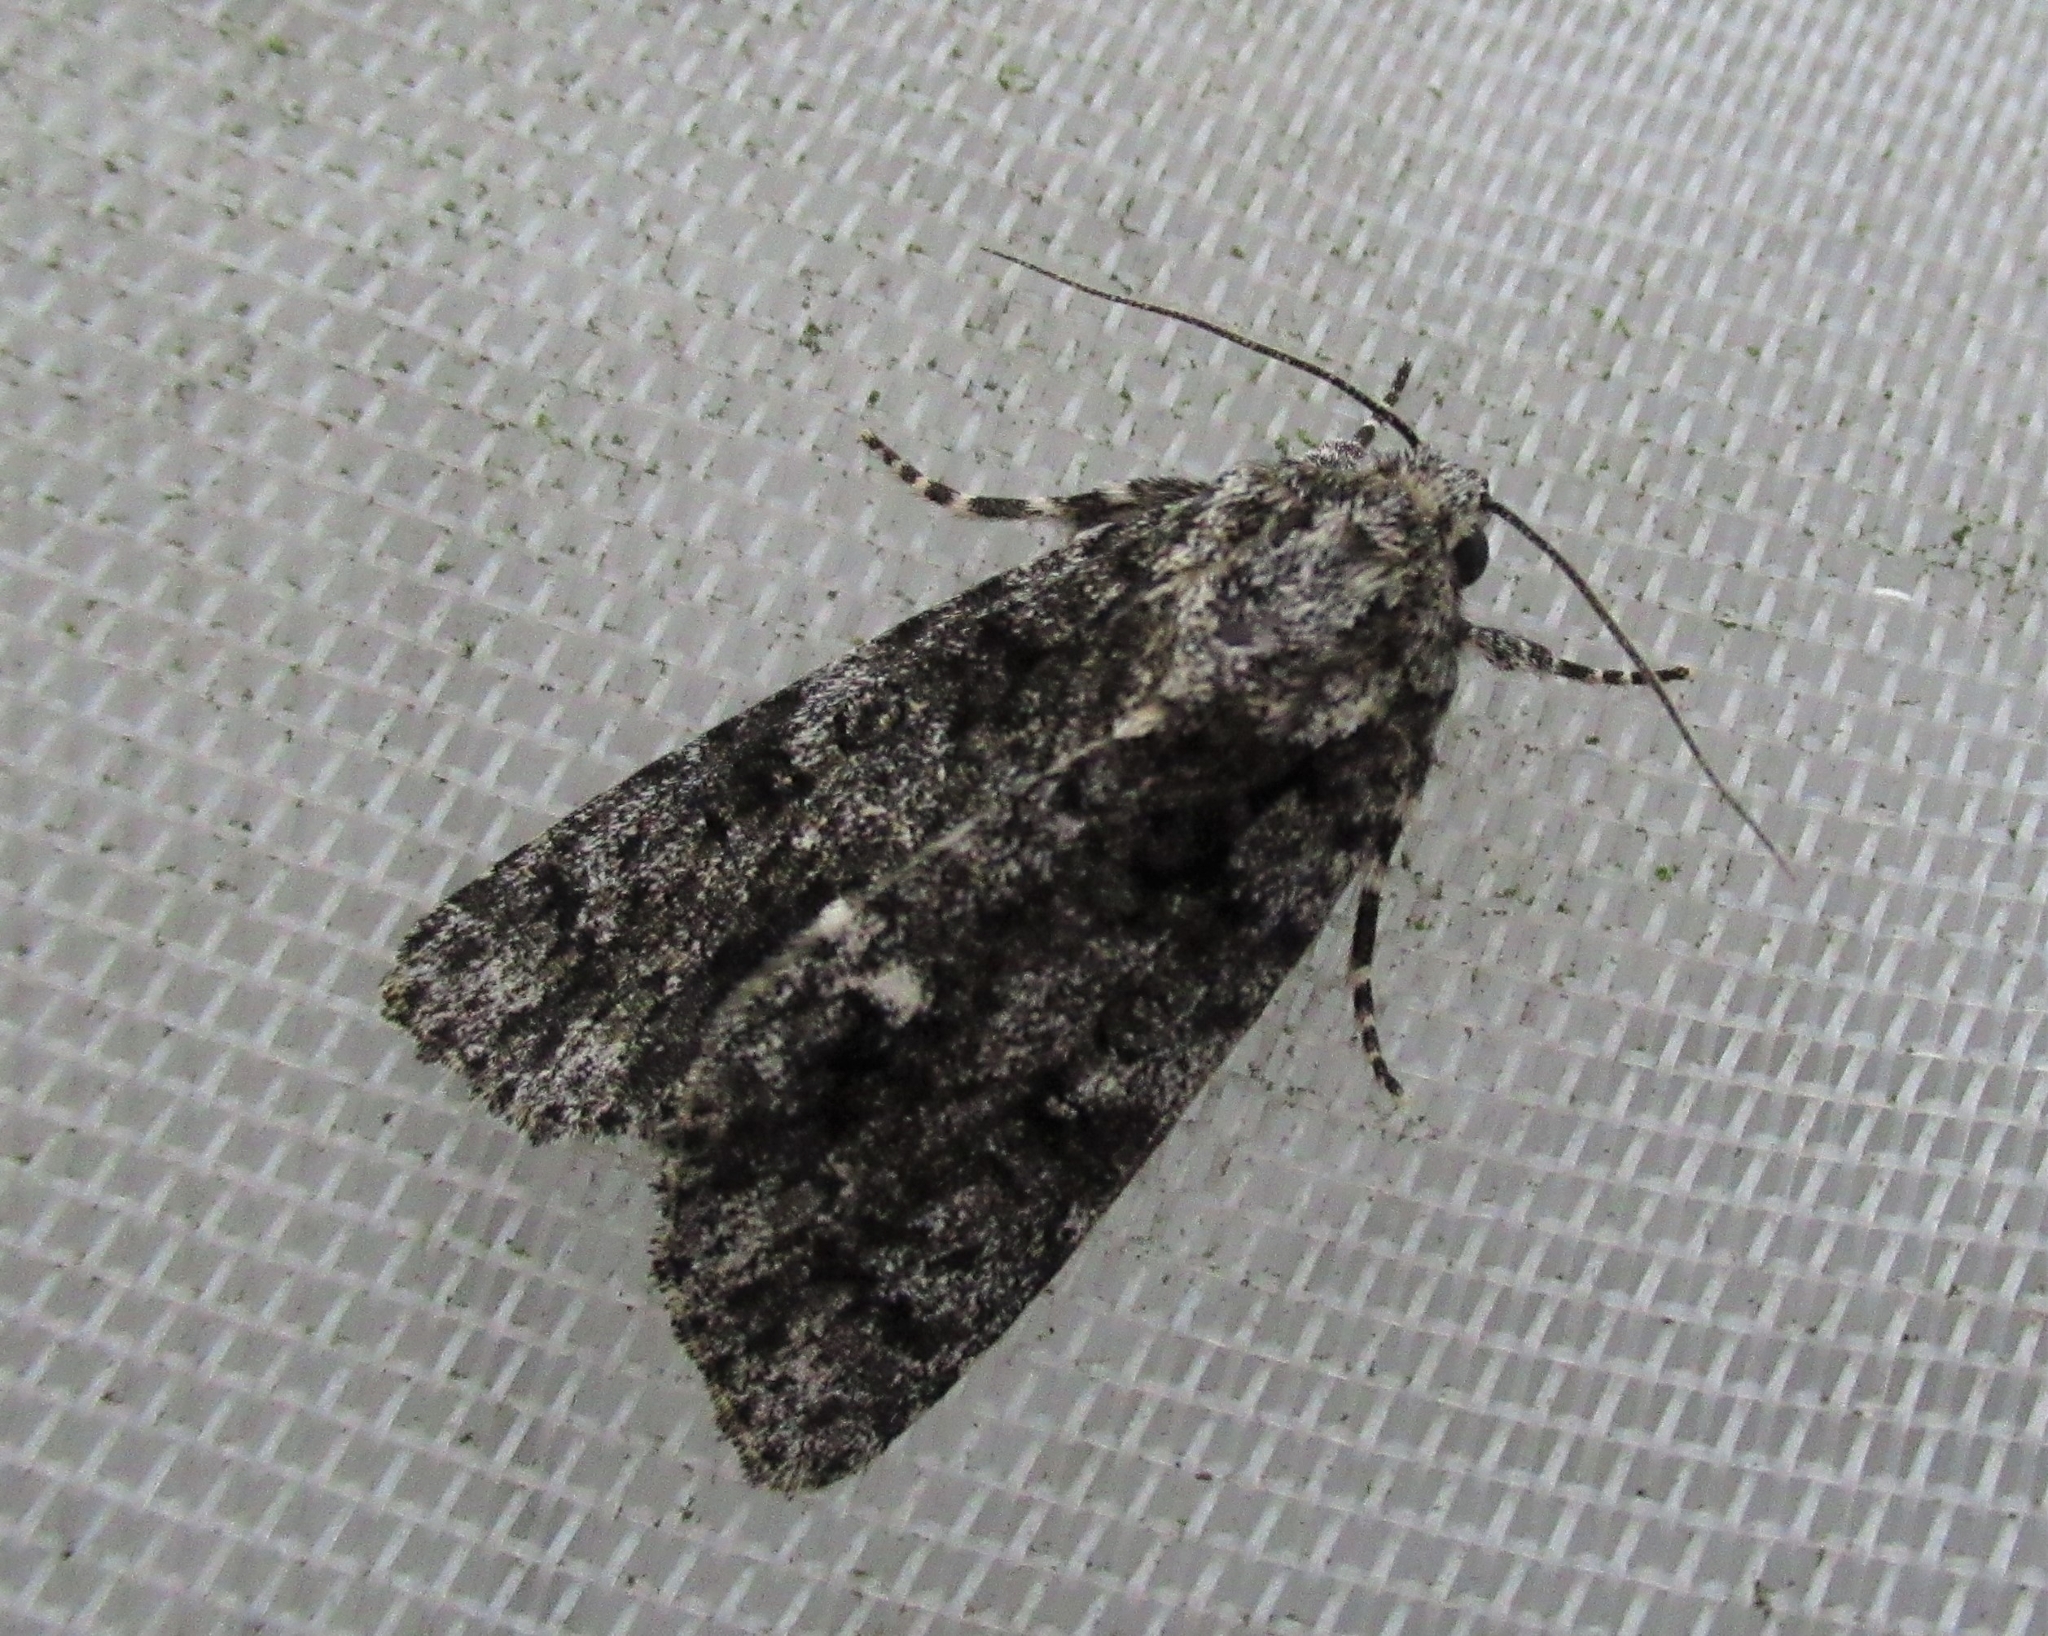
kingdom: Animalia
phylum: Arthropoda
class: Insecta
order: Lepidoptera
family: Noctuidae
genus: Acronicta
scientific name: Acronicta rumicis
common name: Knot grass
